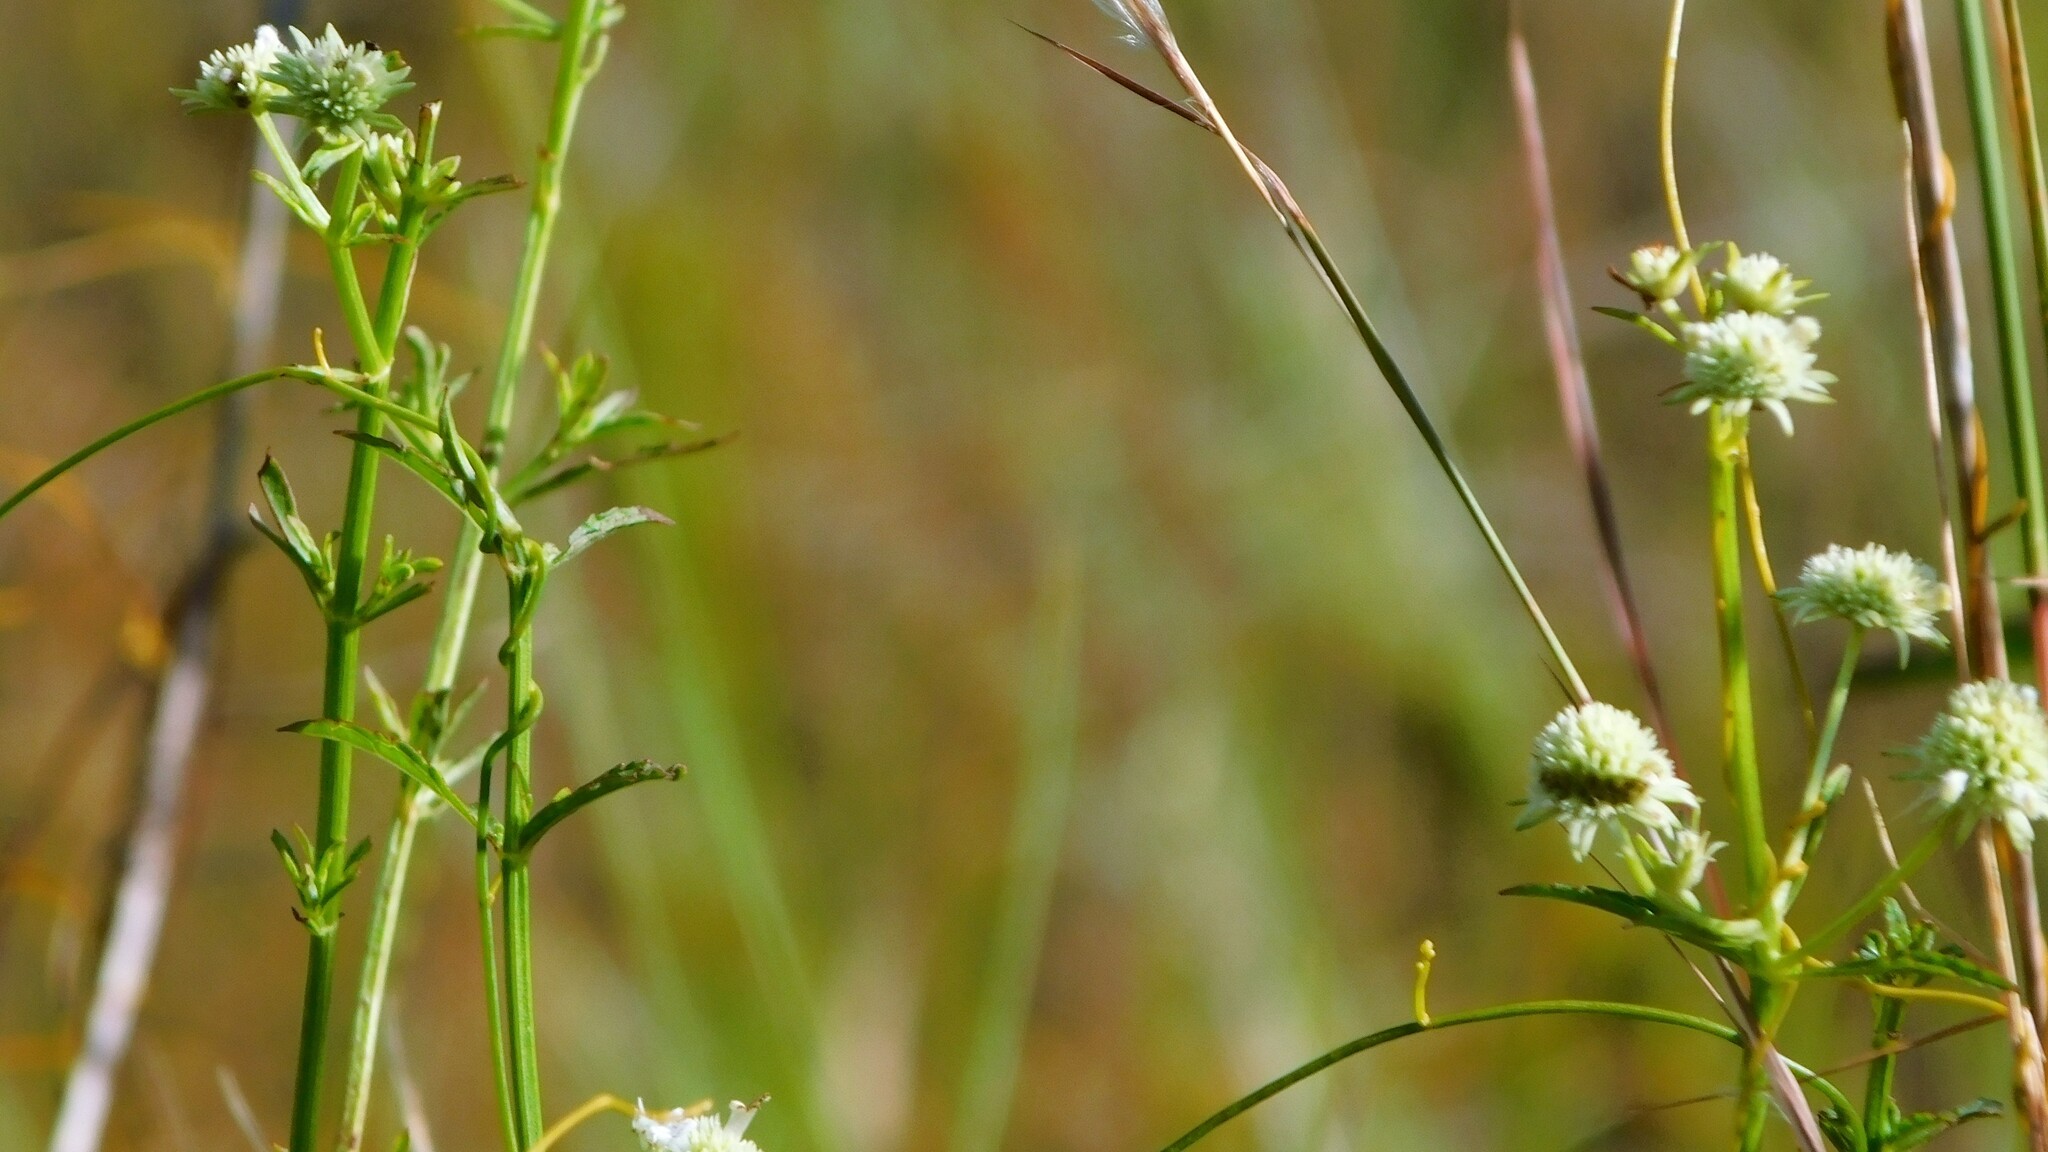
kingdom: Plantae
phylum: Tracheophyta
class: Magnoliopsida
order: Lamiales
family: Lamiaceae
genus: Hyptis
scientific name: Hyptis alata
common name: Cluster bush-mint
